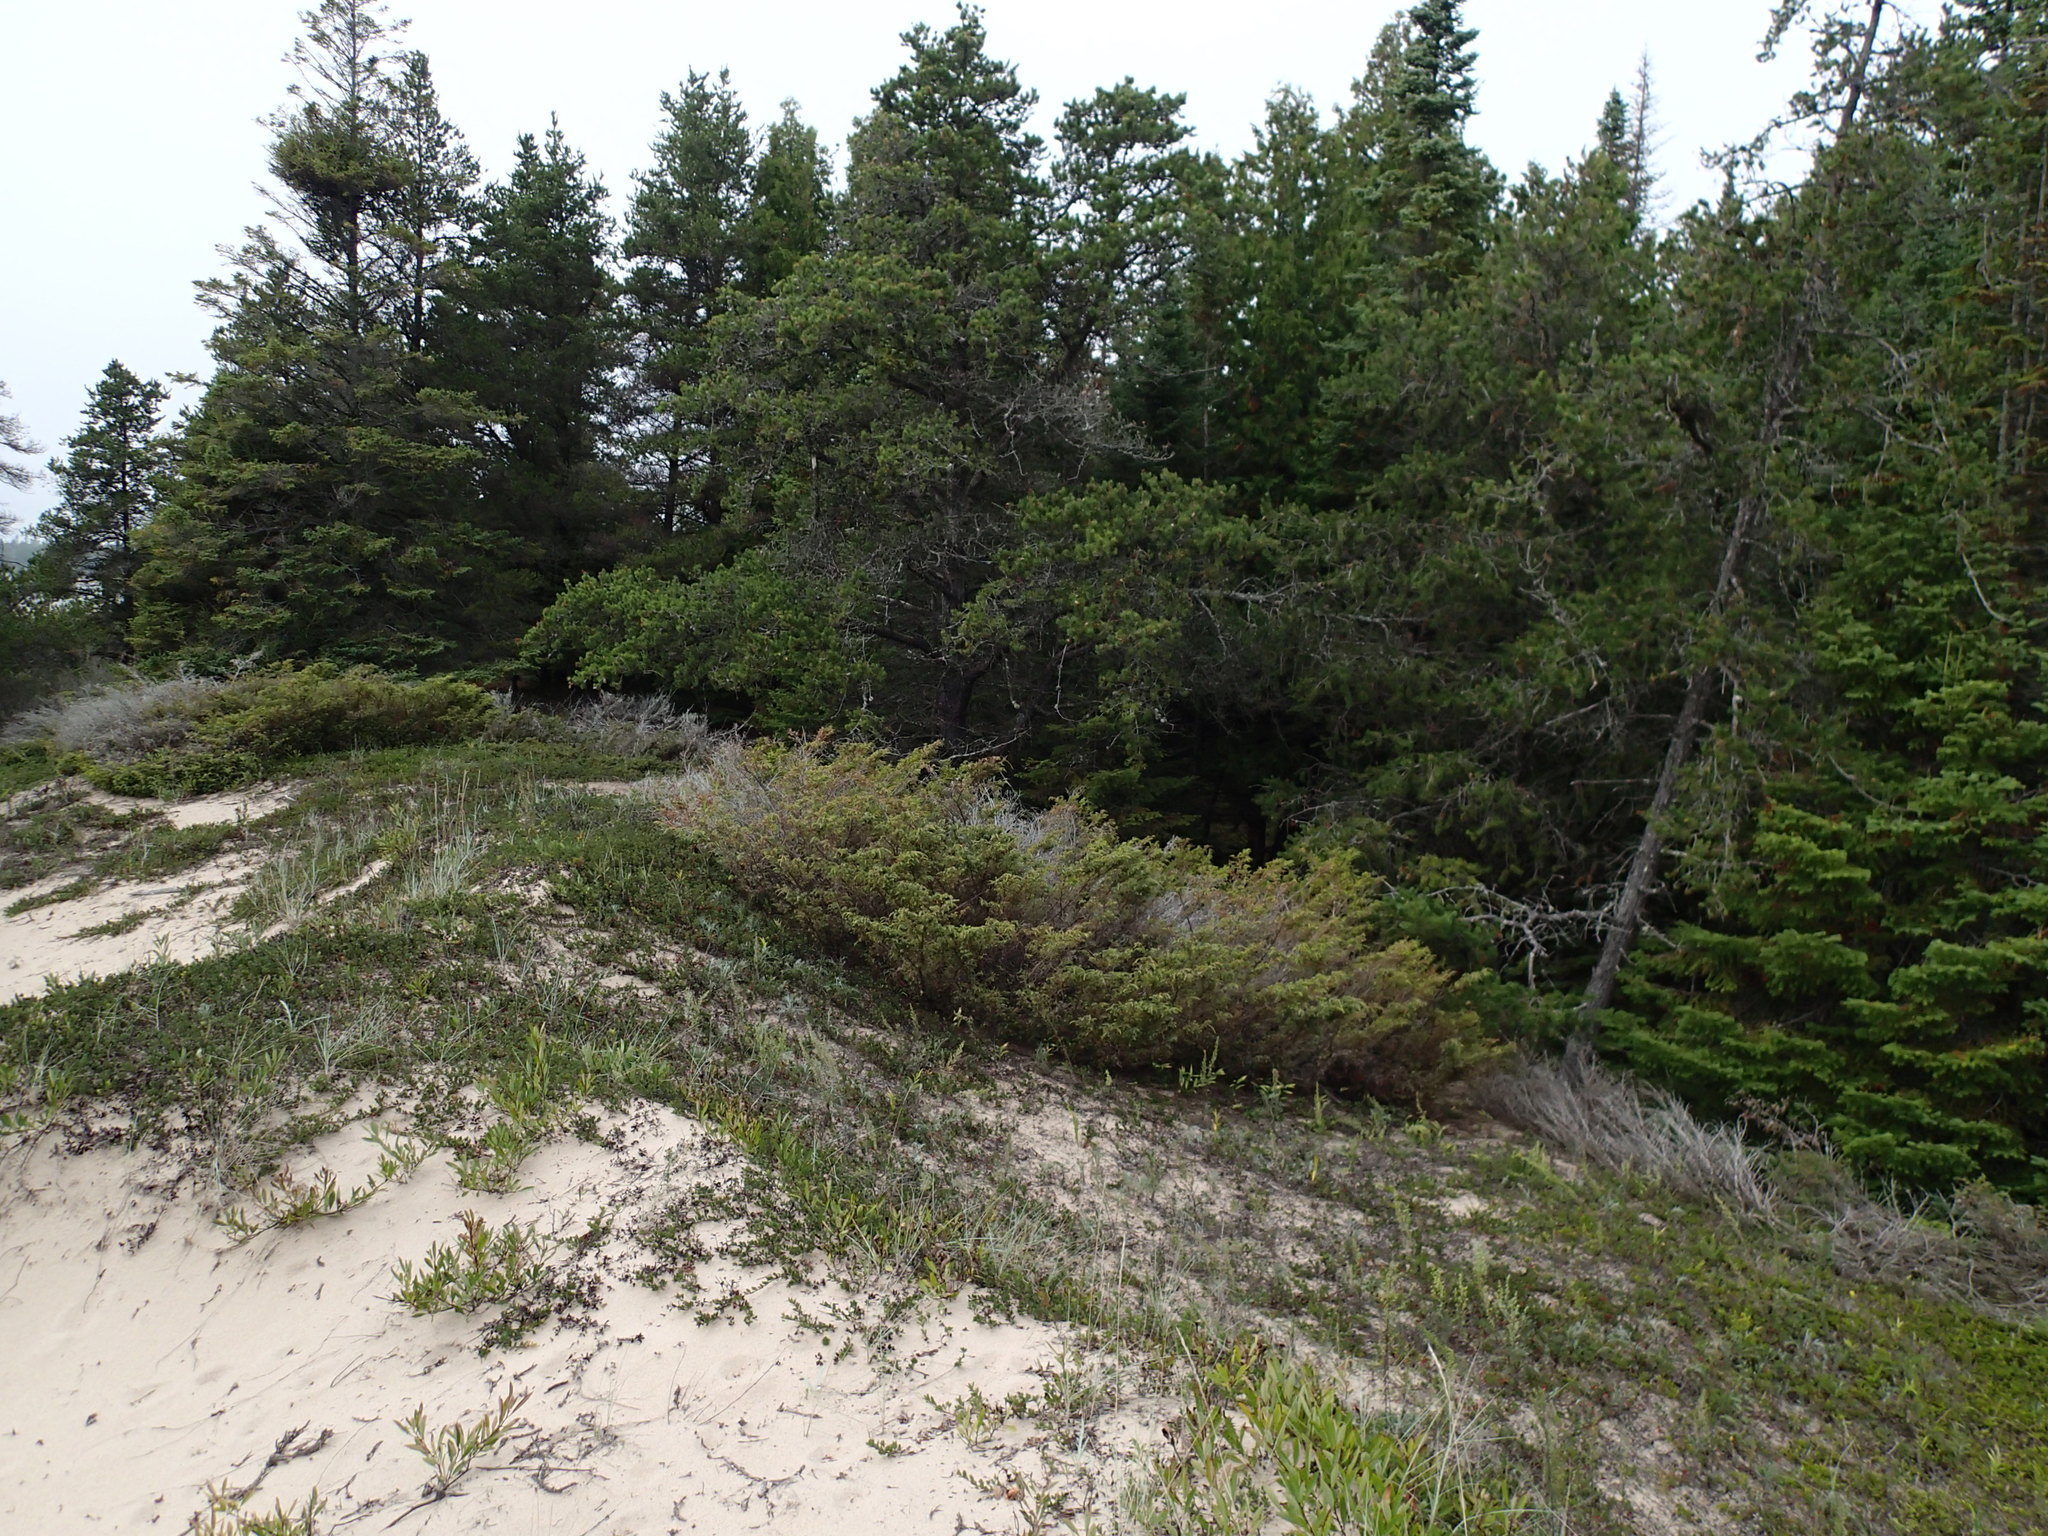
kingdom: Plantae
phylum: Tracheophyta
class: Pinopsida
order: Pinales
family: Cupressaceae
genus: Juniperus
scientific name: Juniperus communis
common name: Common juniper
